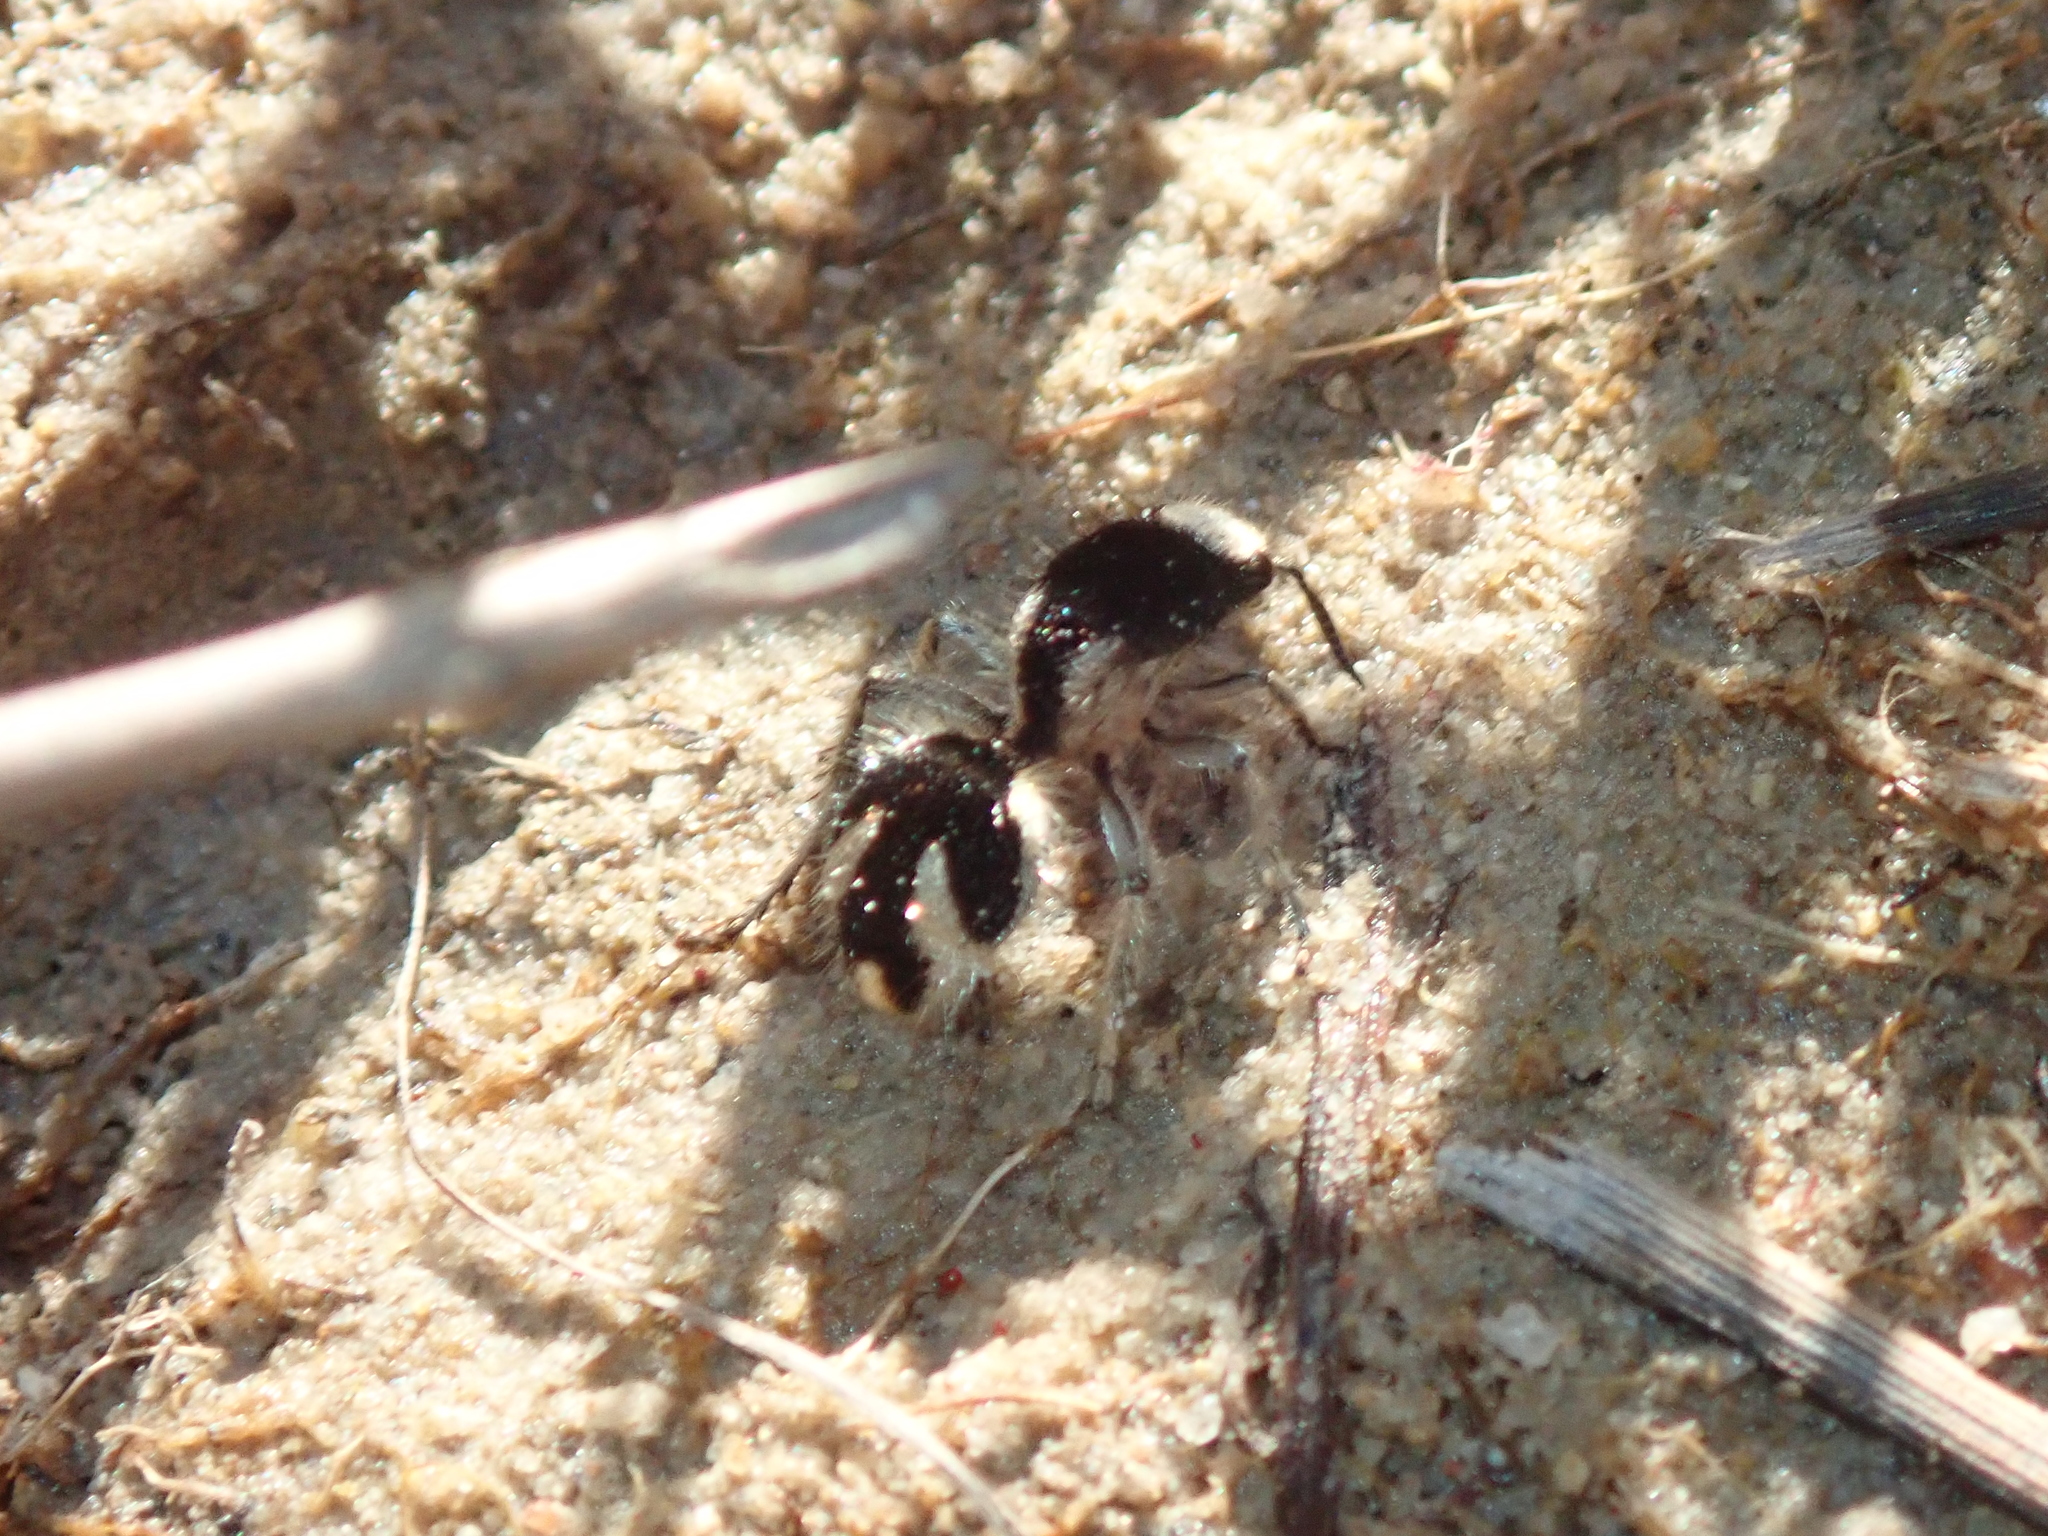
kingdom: Animalia
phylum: Arthropoda
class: Insecta
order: Hymenoptera
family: Mutillidae
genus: Traumatomutilla
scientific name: Traumatomutilla bifurca
